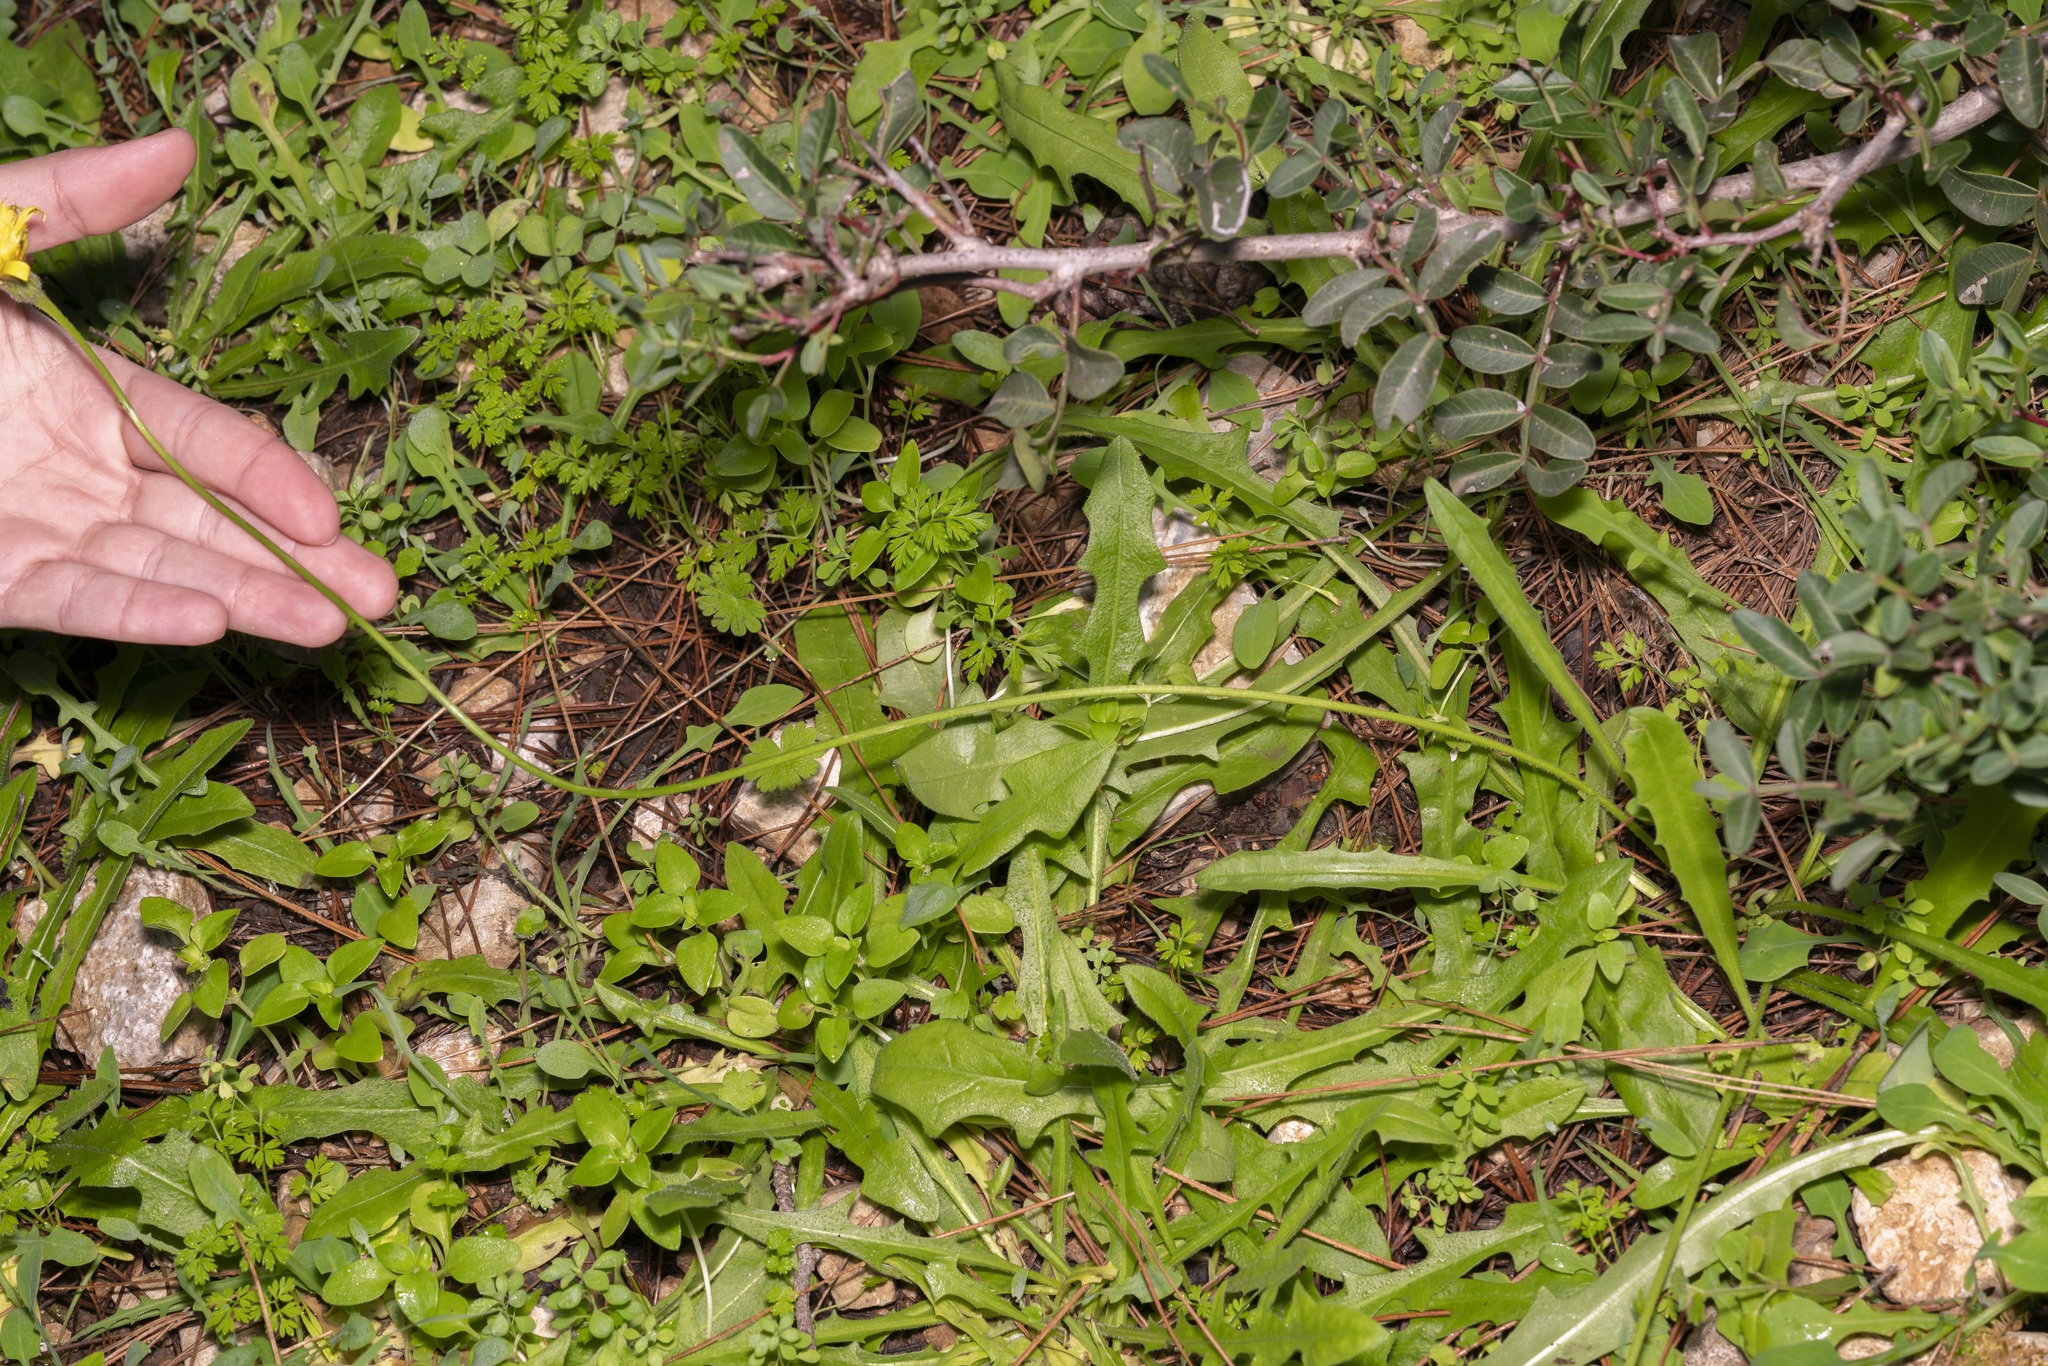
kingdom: Plantae
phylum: Tracheophyta
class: Magnoliopsida
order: Asterales
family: Asteraceae
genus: Leontodon
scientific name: Leontodon tuberosus
